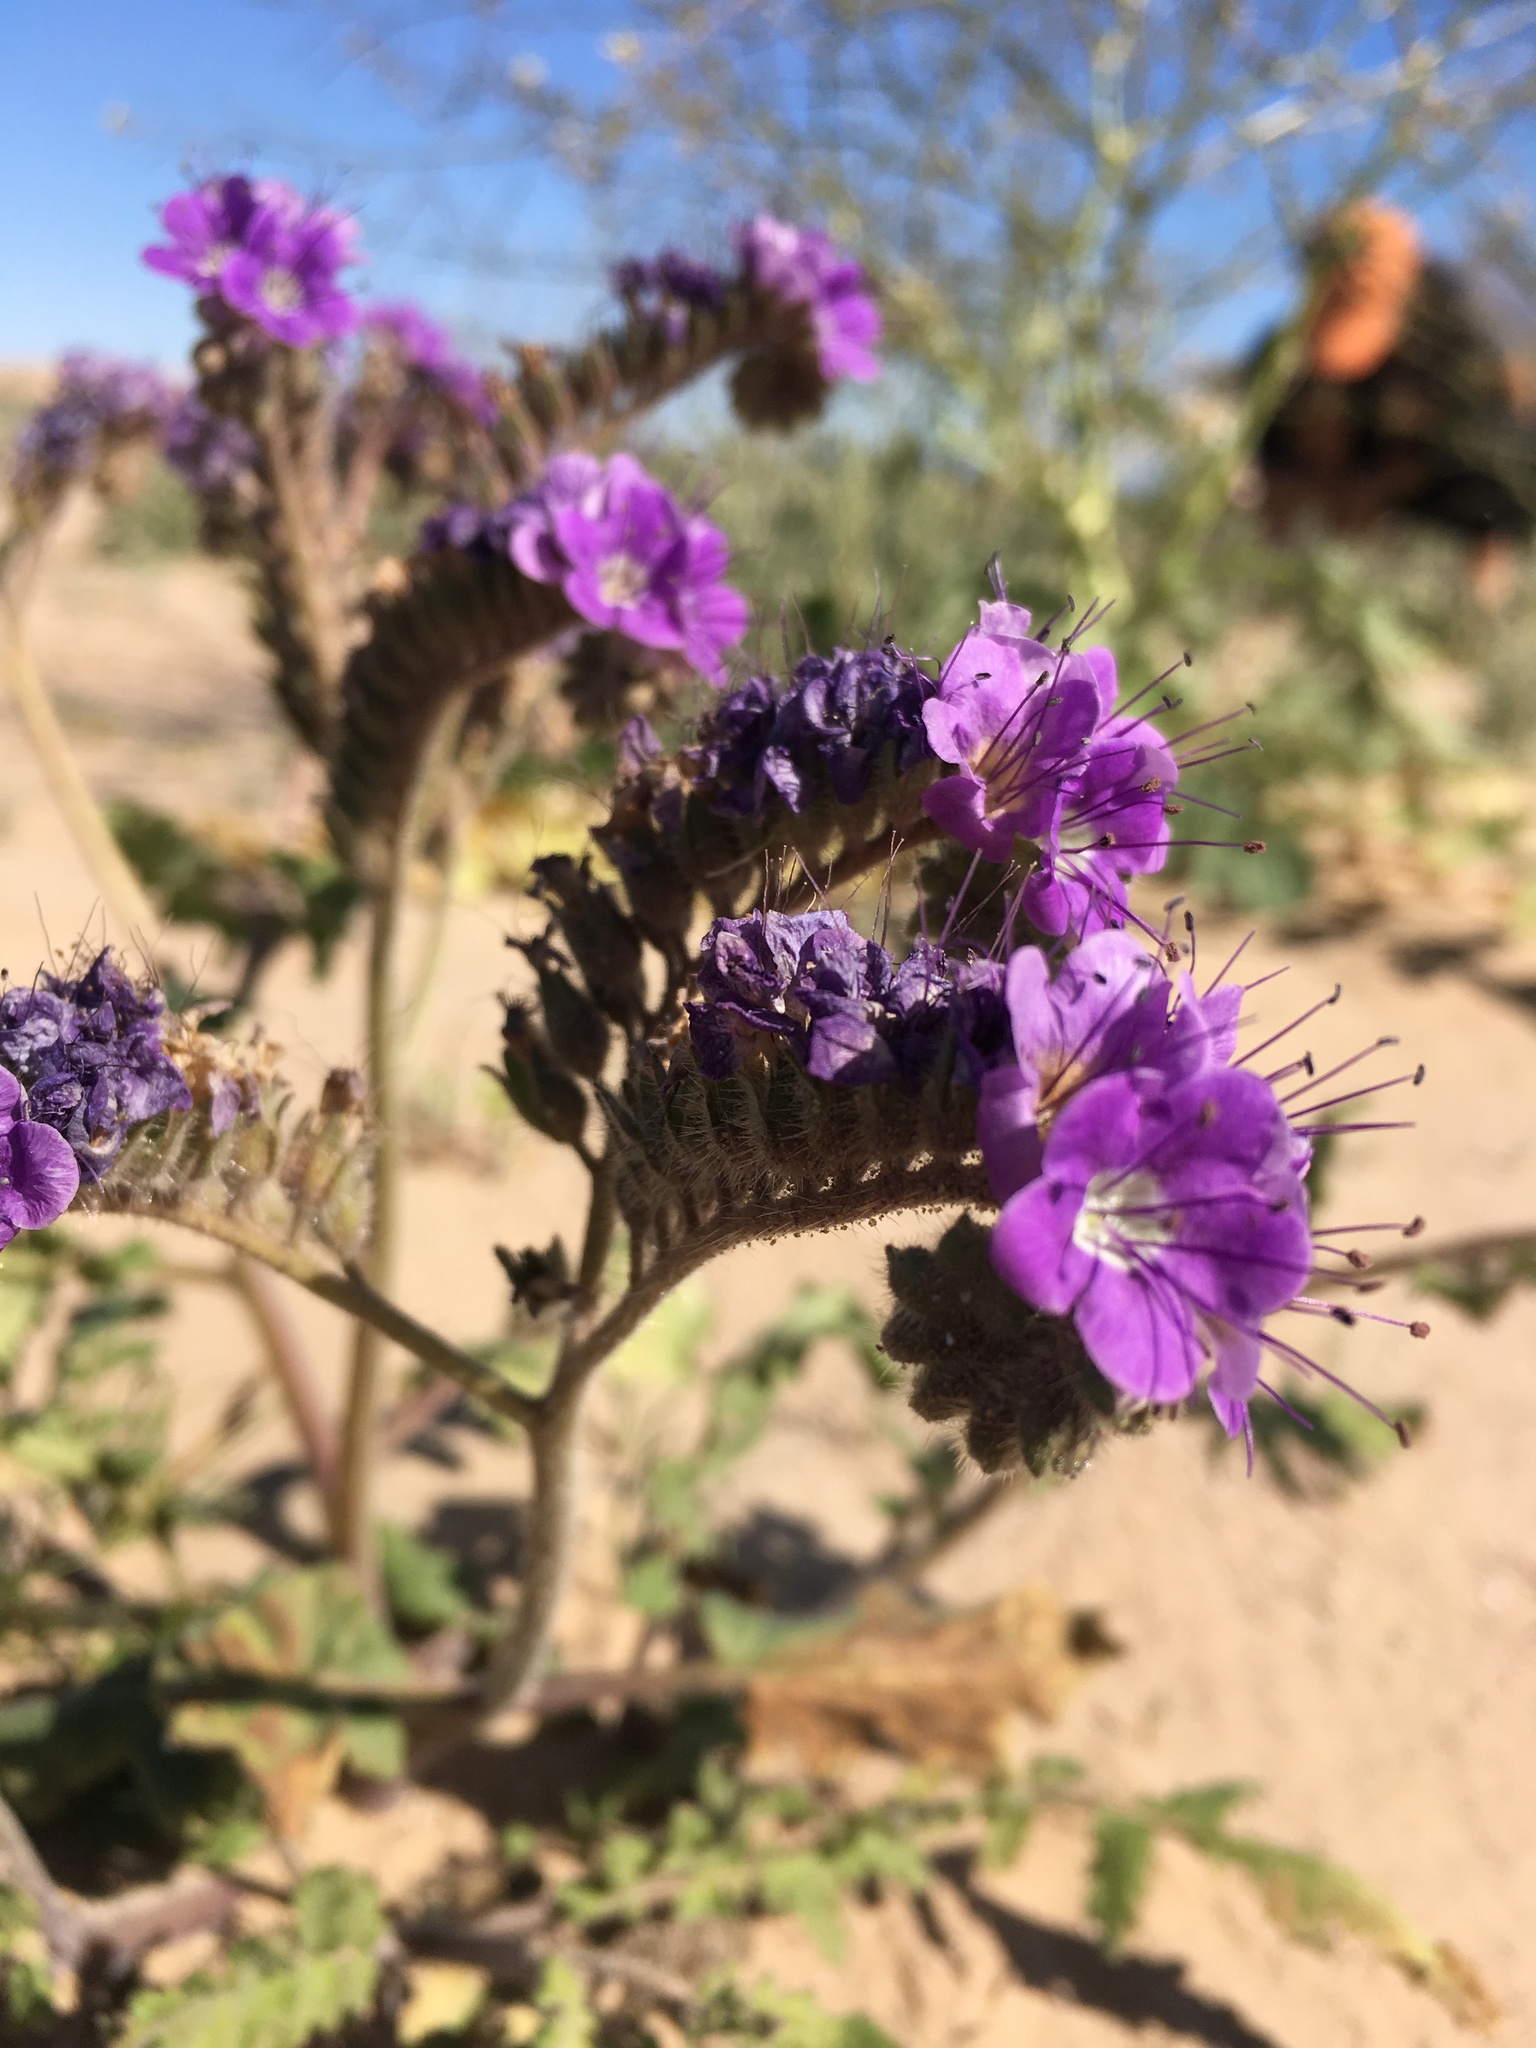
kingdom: Plantae
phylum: Tracheophyta
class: Magnoliopsida
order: Boraginales
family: Hydrophyllaceae
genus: Phacelia
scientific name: Phacelia crenulata
